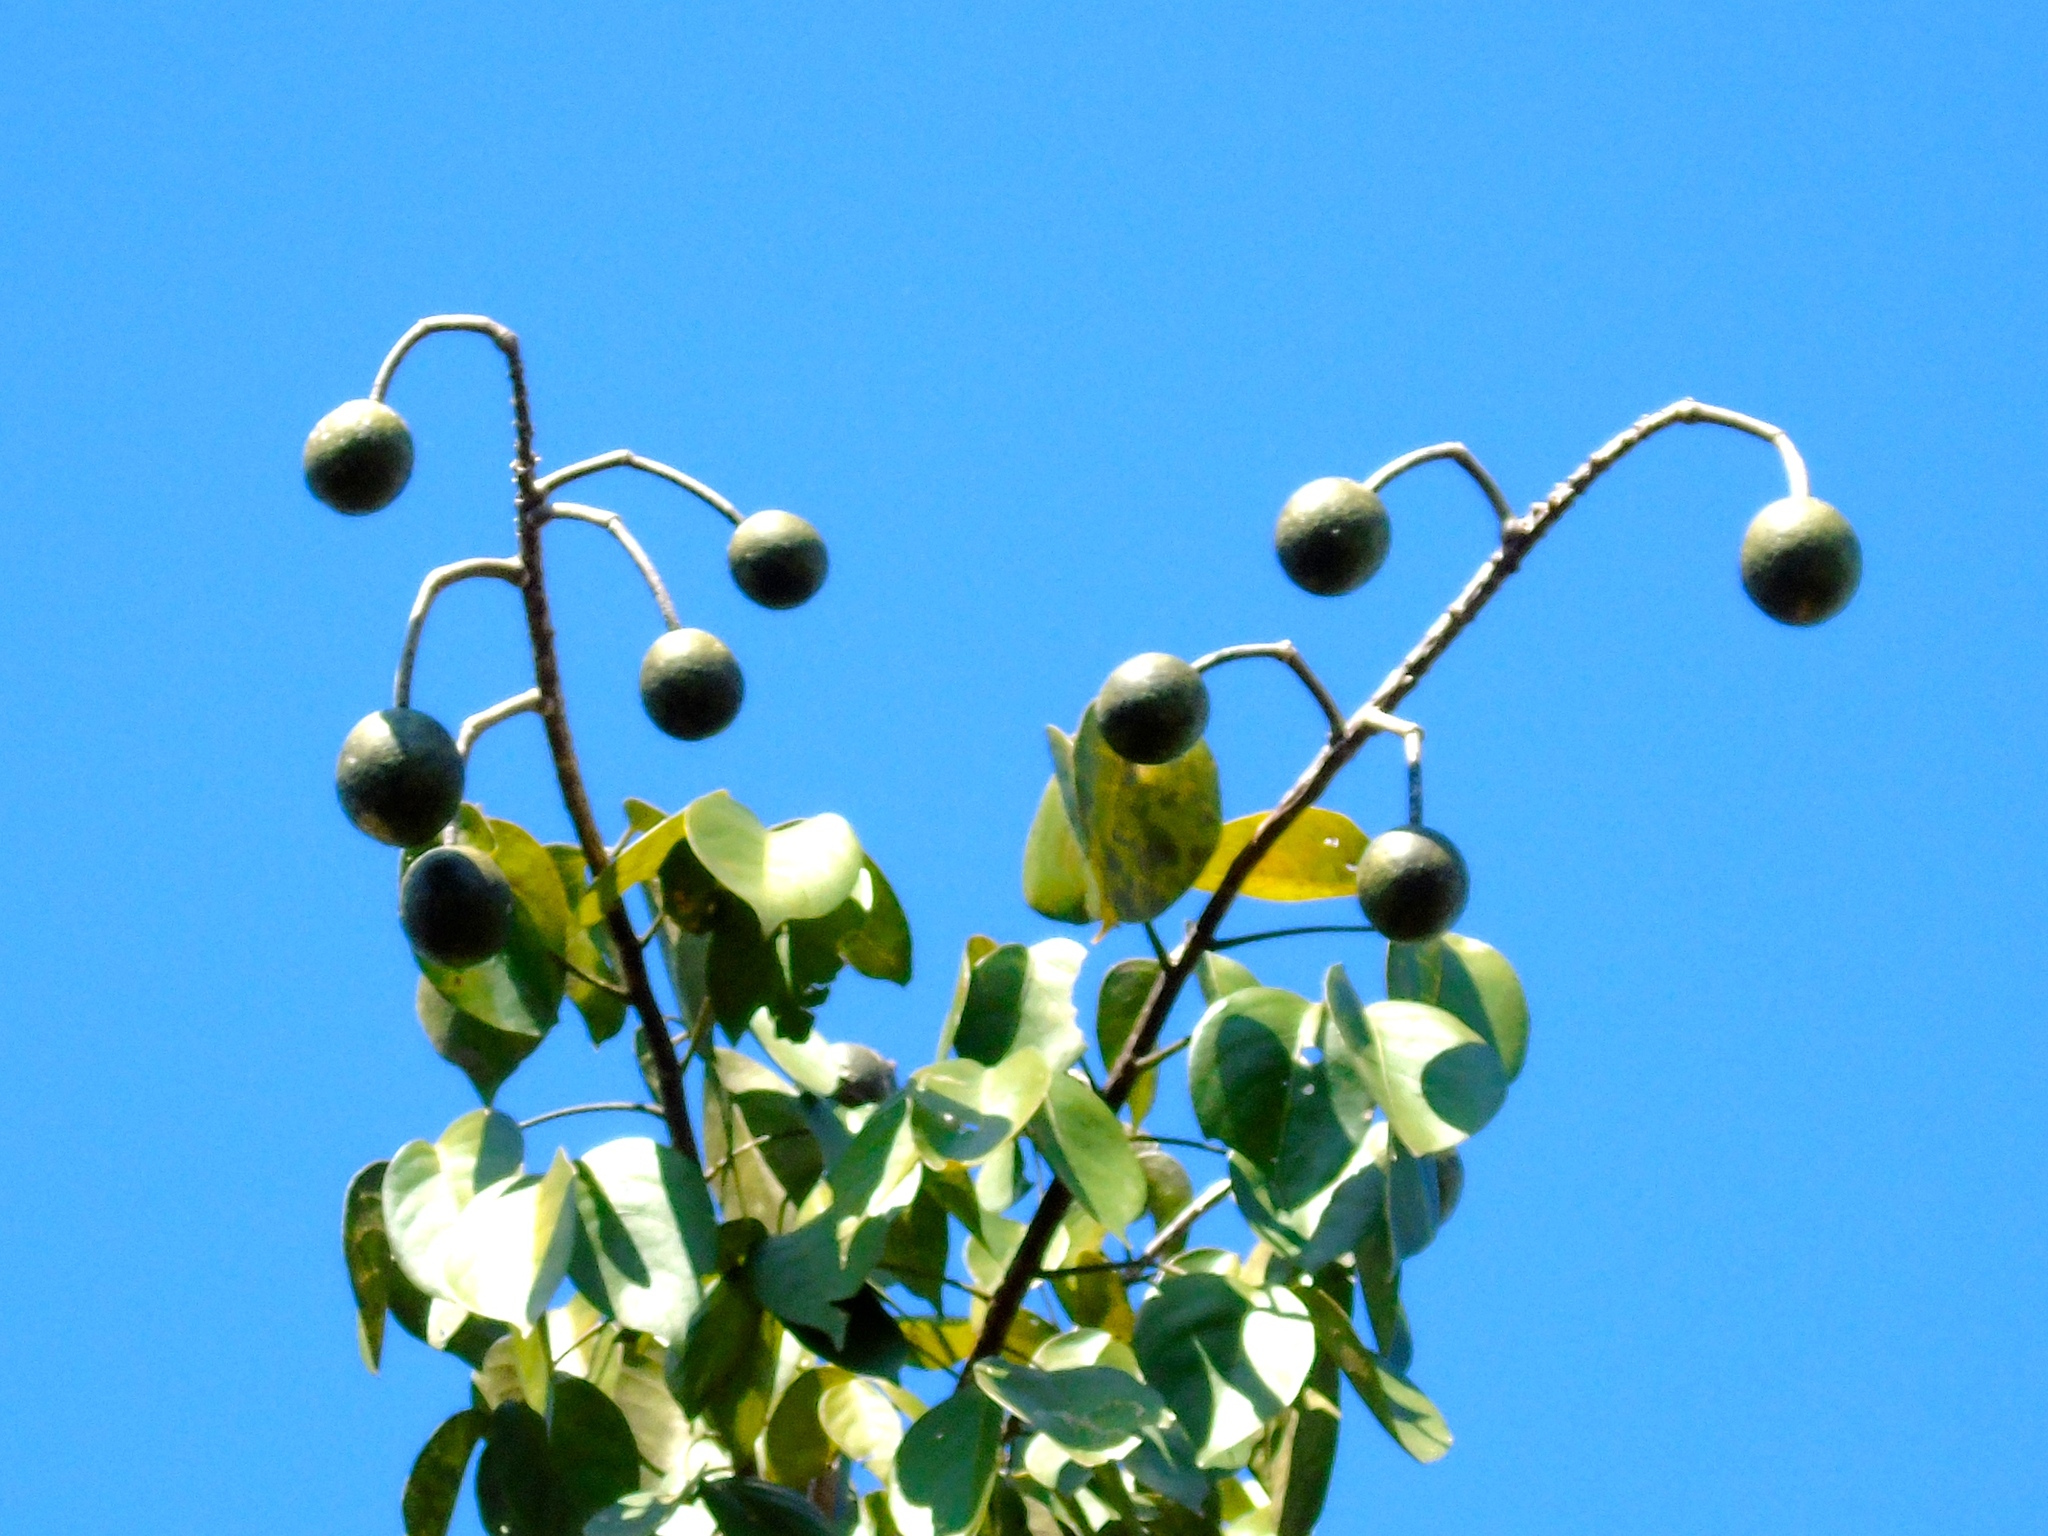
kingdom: Plantae
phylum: Tracheophyta
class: Magnoliopsida
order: Brassicales
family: Capparaceae
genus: Crateva
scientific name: Crateva tapia
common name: Garlic-pear
